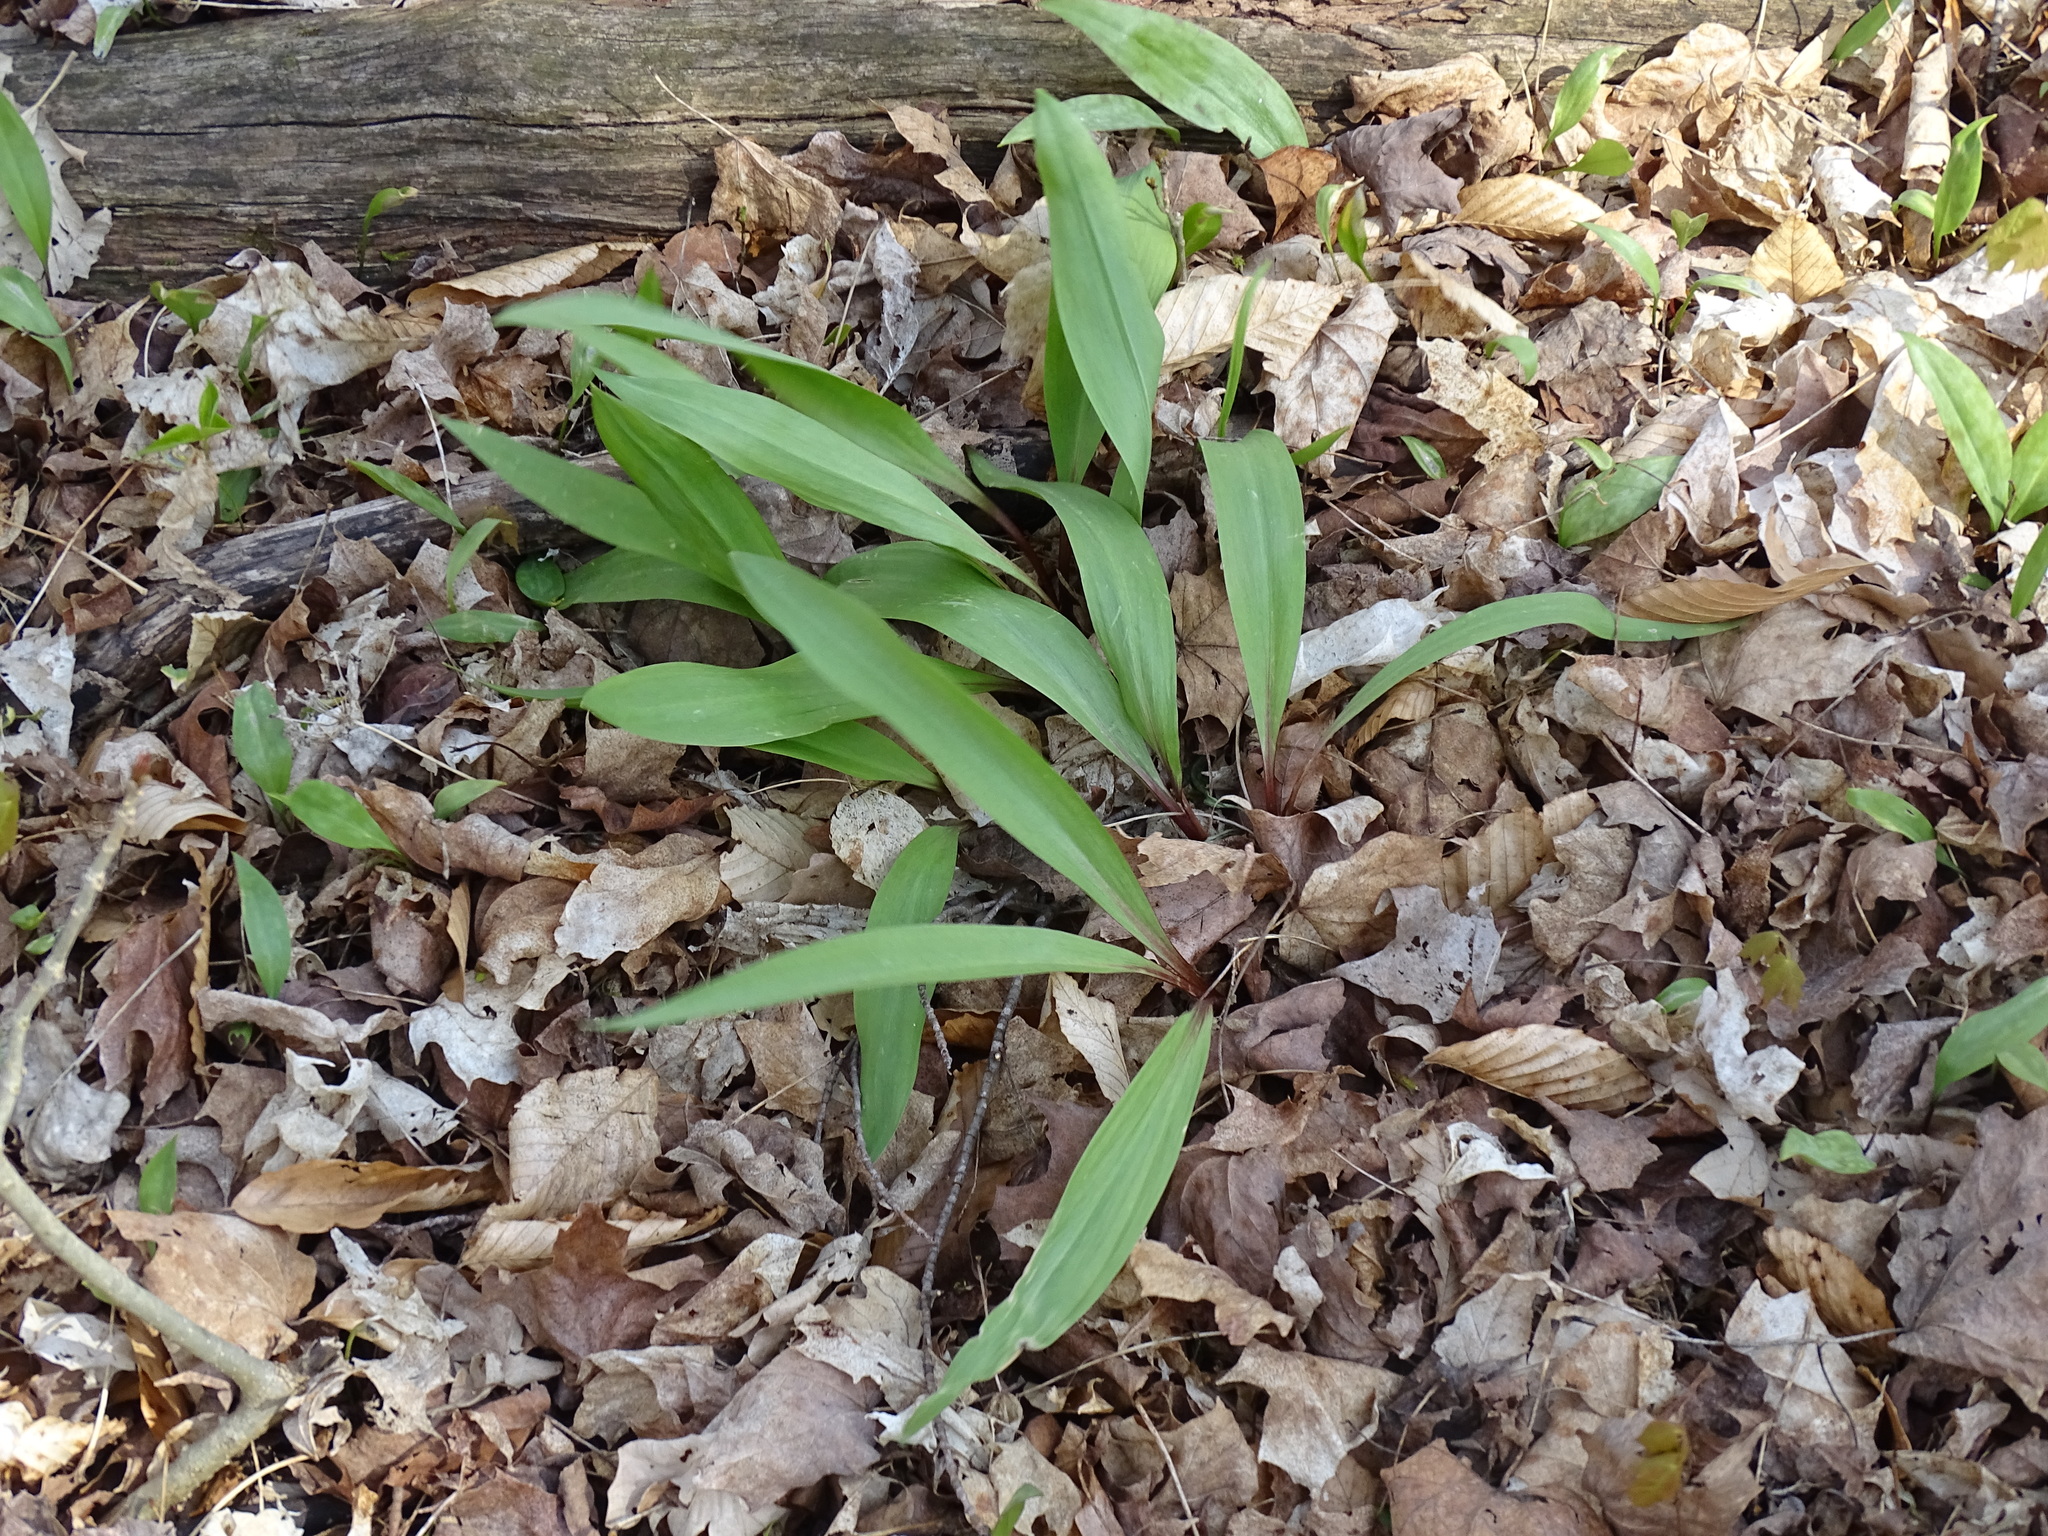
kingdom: Plantae
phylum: Tracheophyta
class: Liliopsida
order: Asparagales
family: Amaryllidaceae
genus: Allium
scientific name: Allium tricoccum
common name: Ramp
